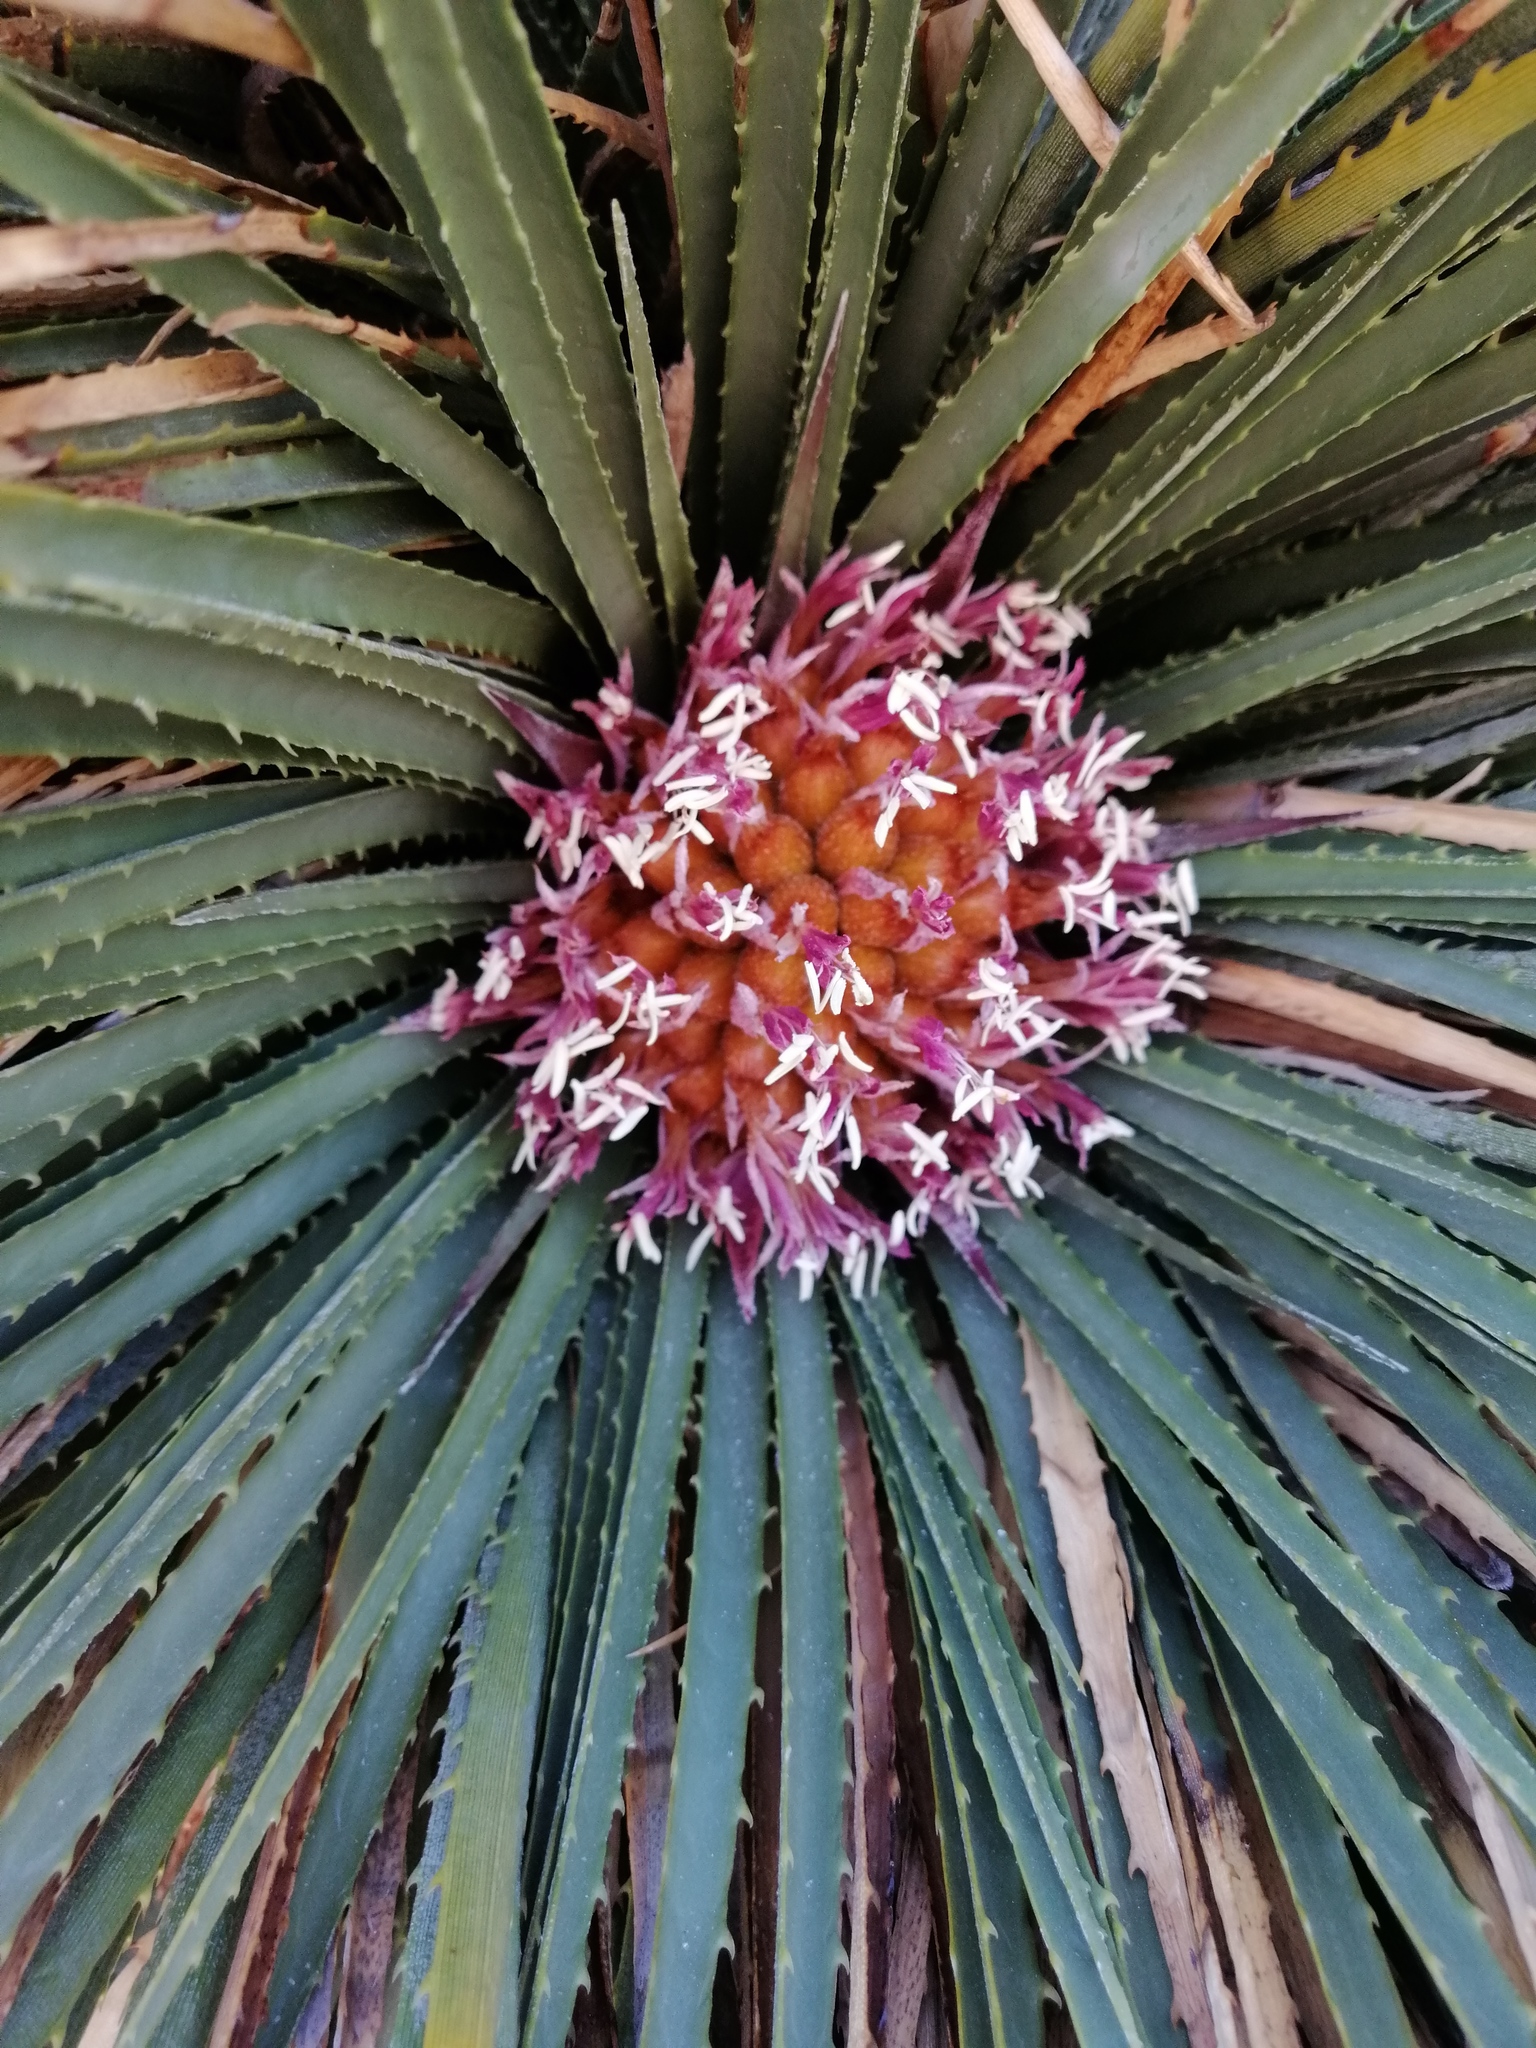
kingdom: Plantae
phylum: Tracheophyta
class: Liliopsida
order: Poales
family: Bromeliaceae
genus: Ochagavia
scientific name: Ochagavia andina
